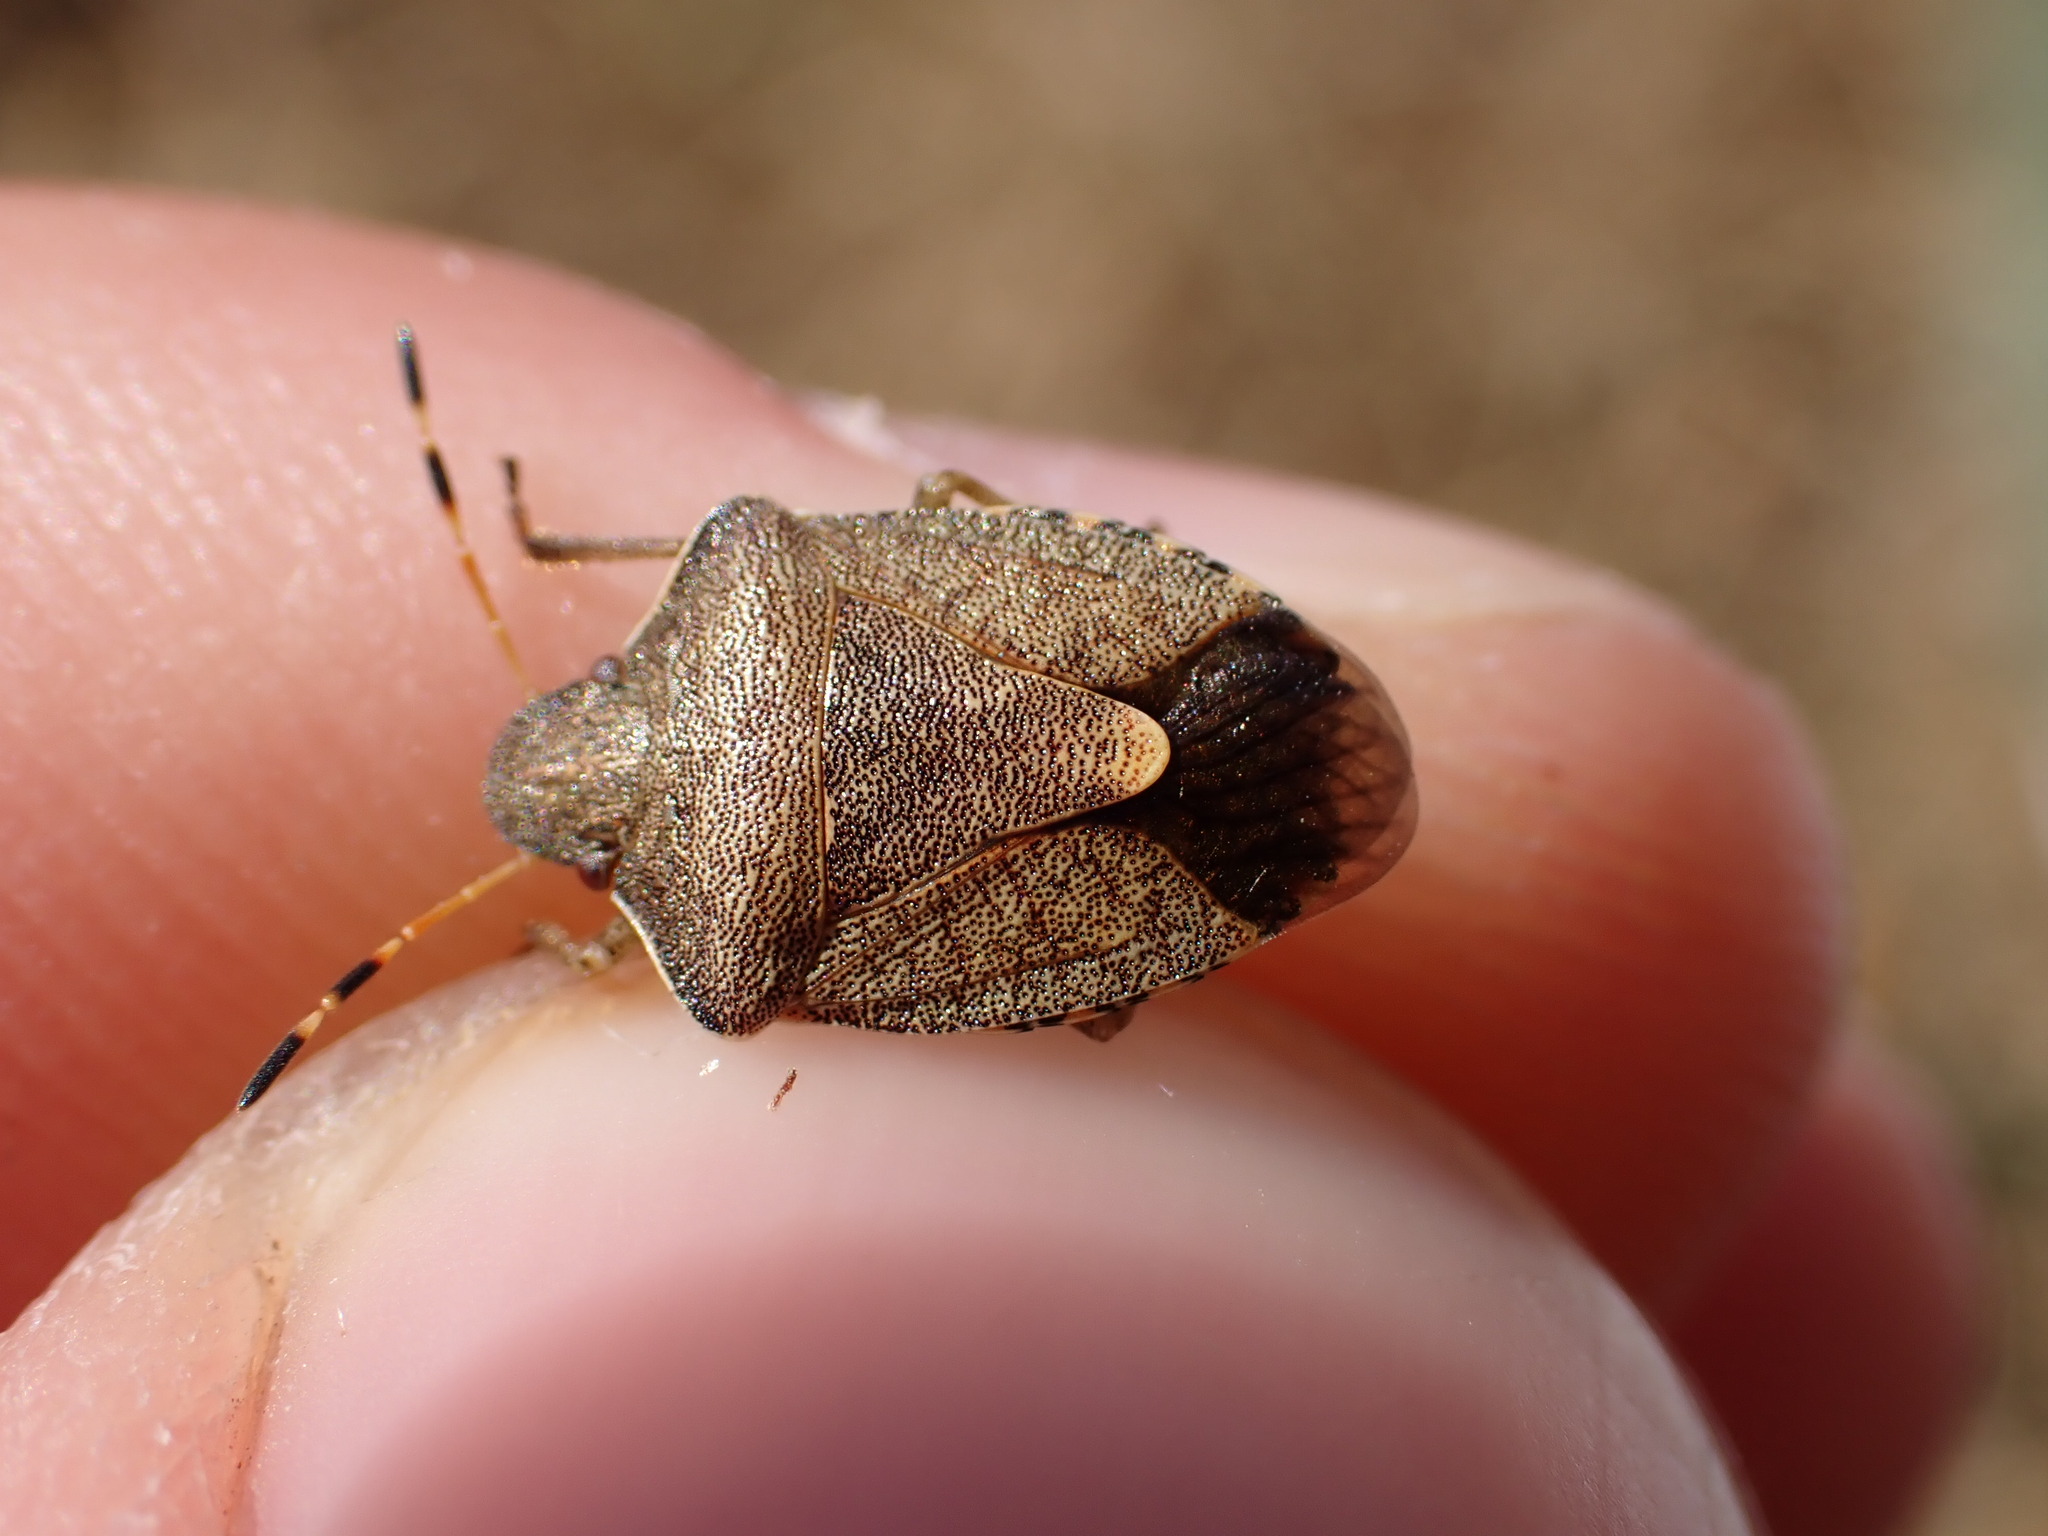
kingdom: Animalia
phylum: Arthropoda
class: Insecta
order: Hemiptera
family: Pentatomidae
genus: Holcostethus
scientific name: Holcostethus strictus
